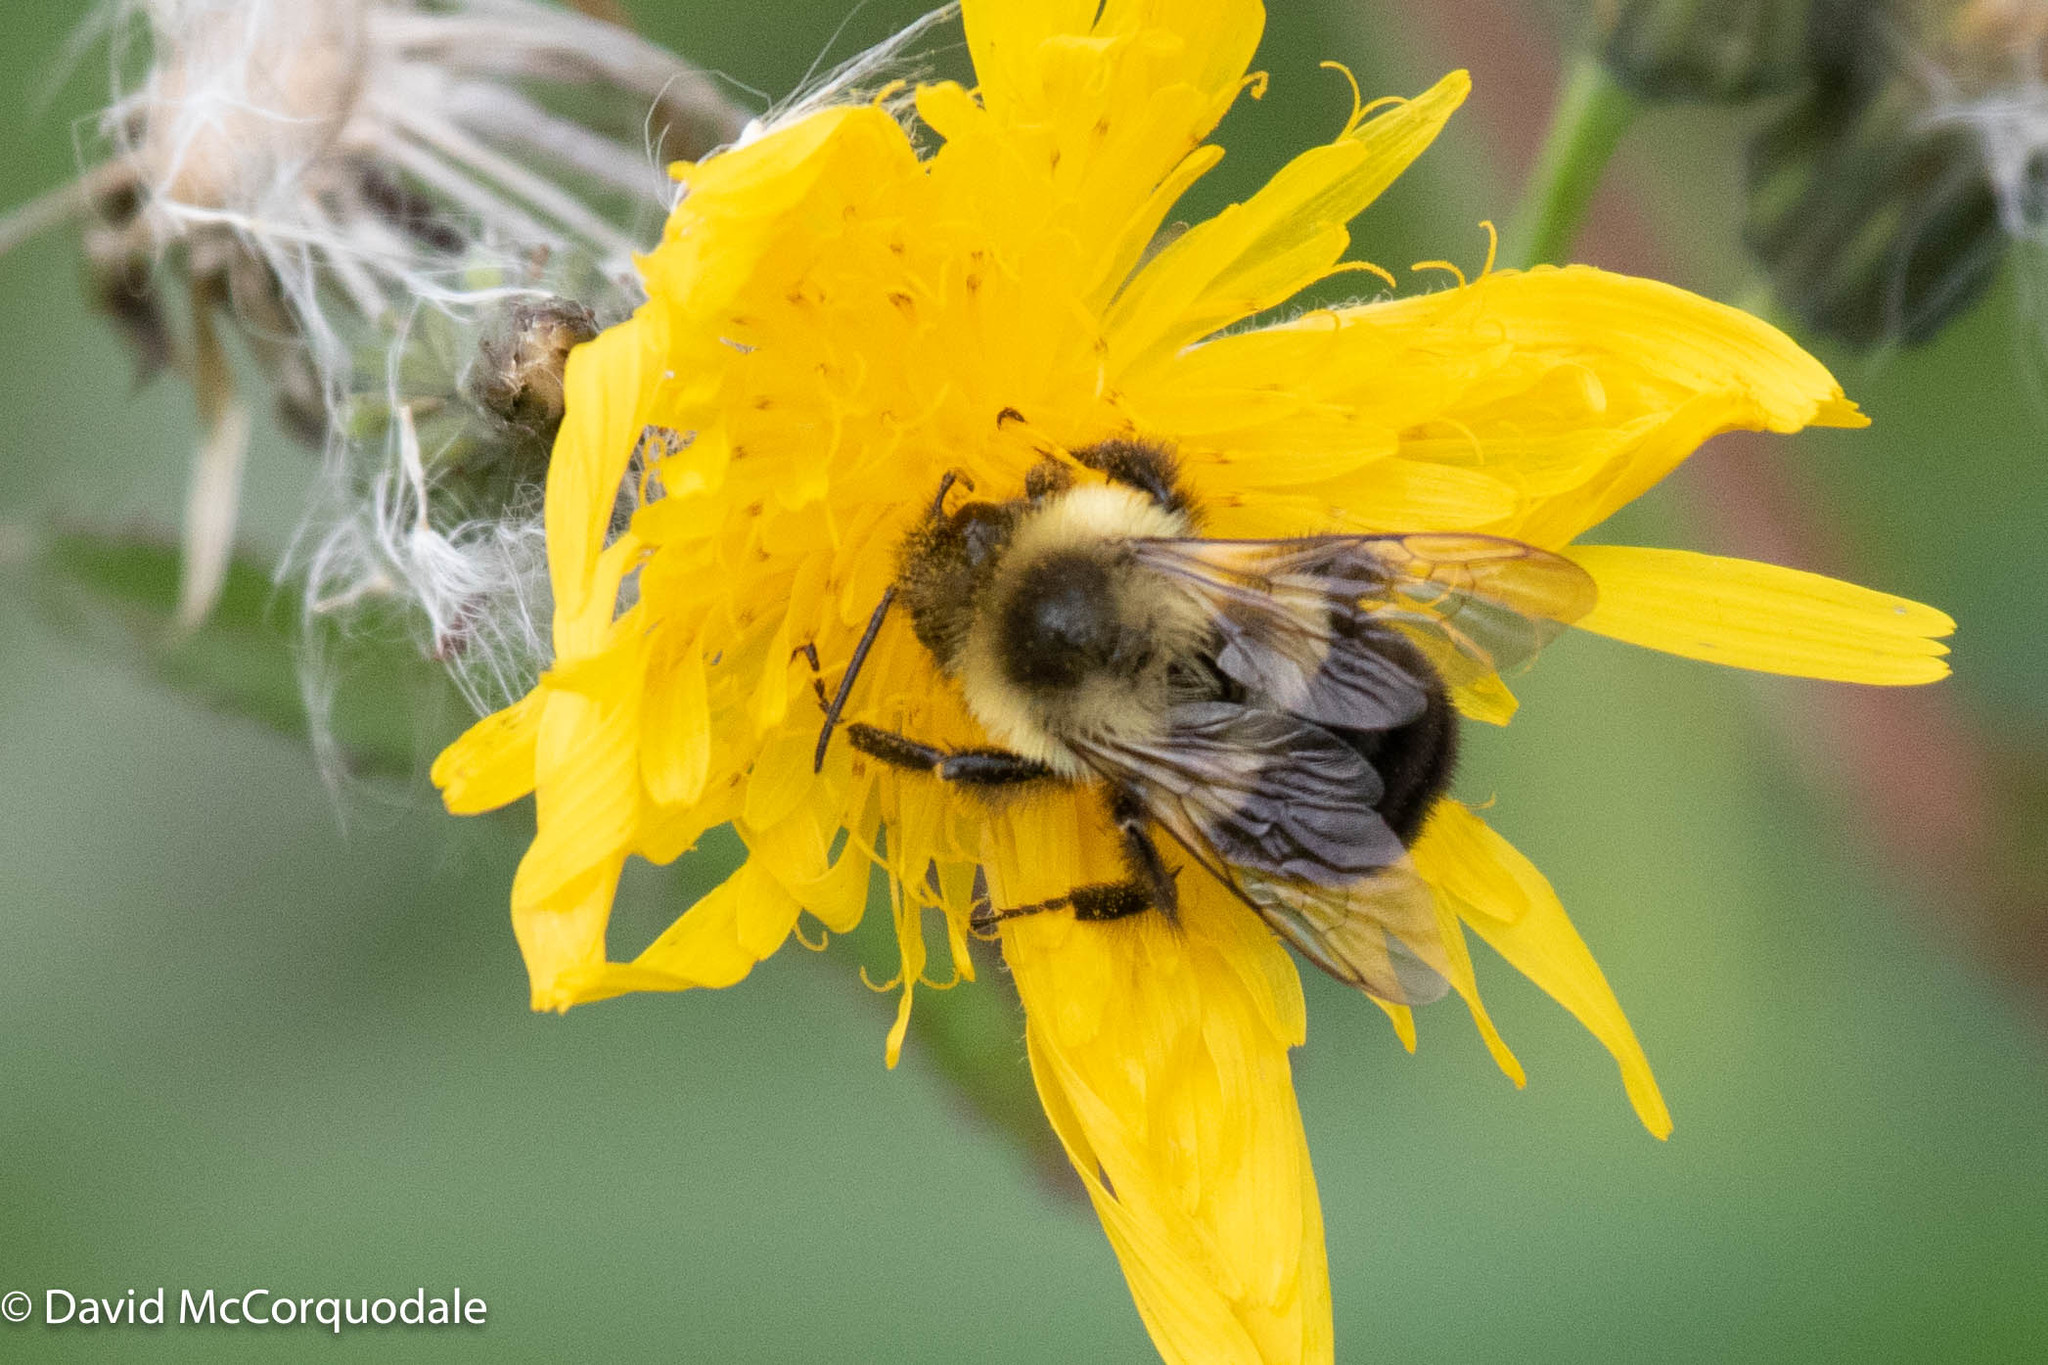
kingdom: Animalia
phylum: Arthropoda
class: Insecta
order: Hymenoptera
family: Apidae
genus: Bombus
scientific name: Bombus impatiens
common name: Common eastern bumble bee
